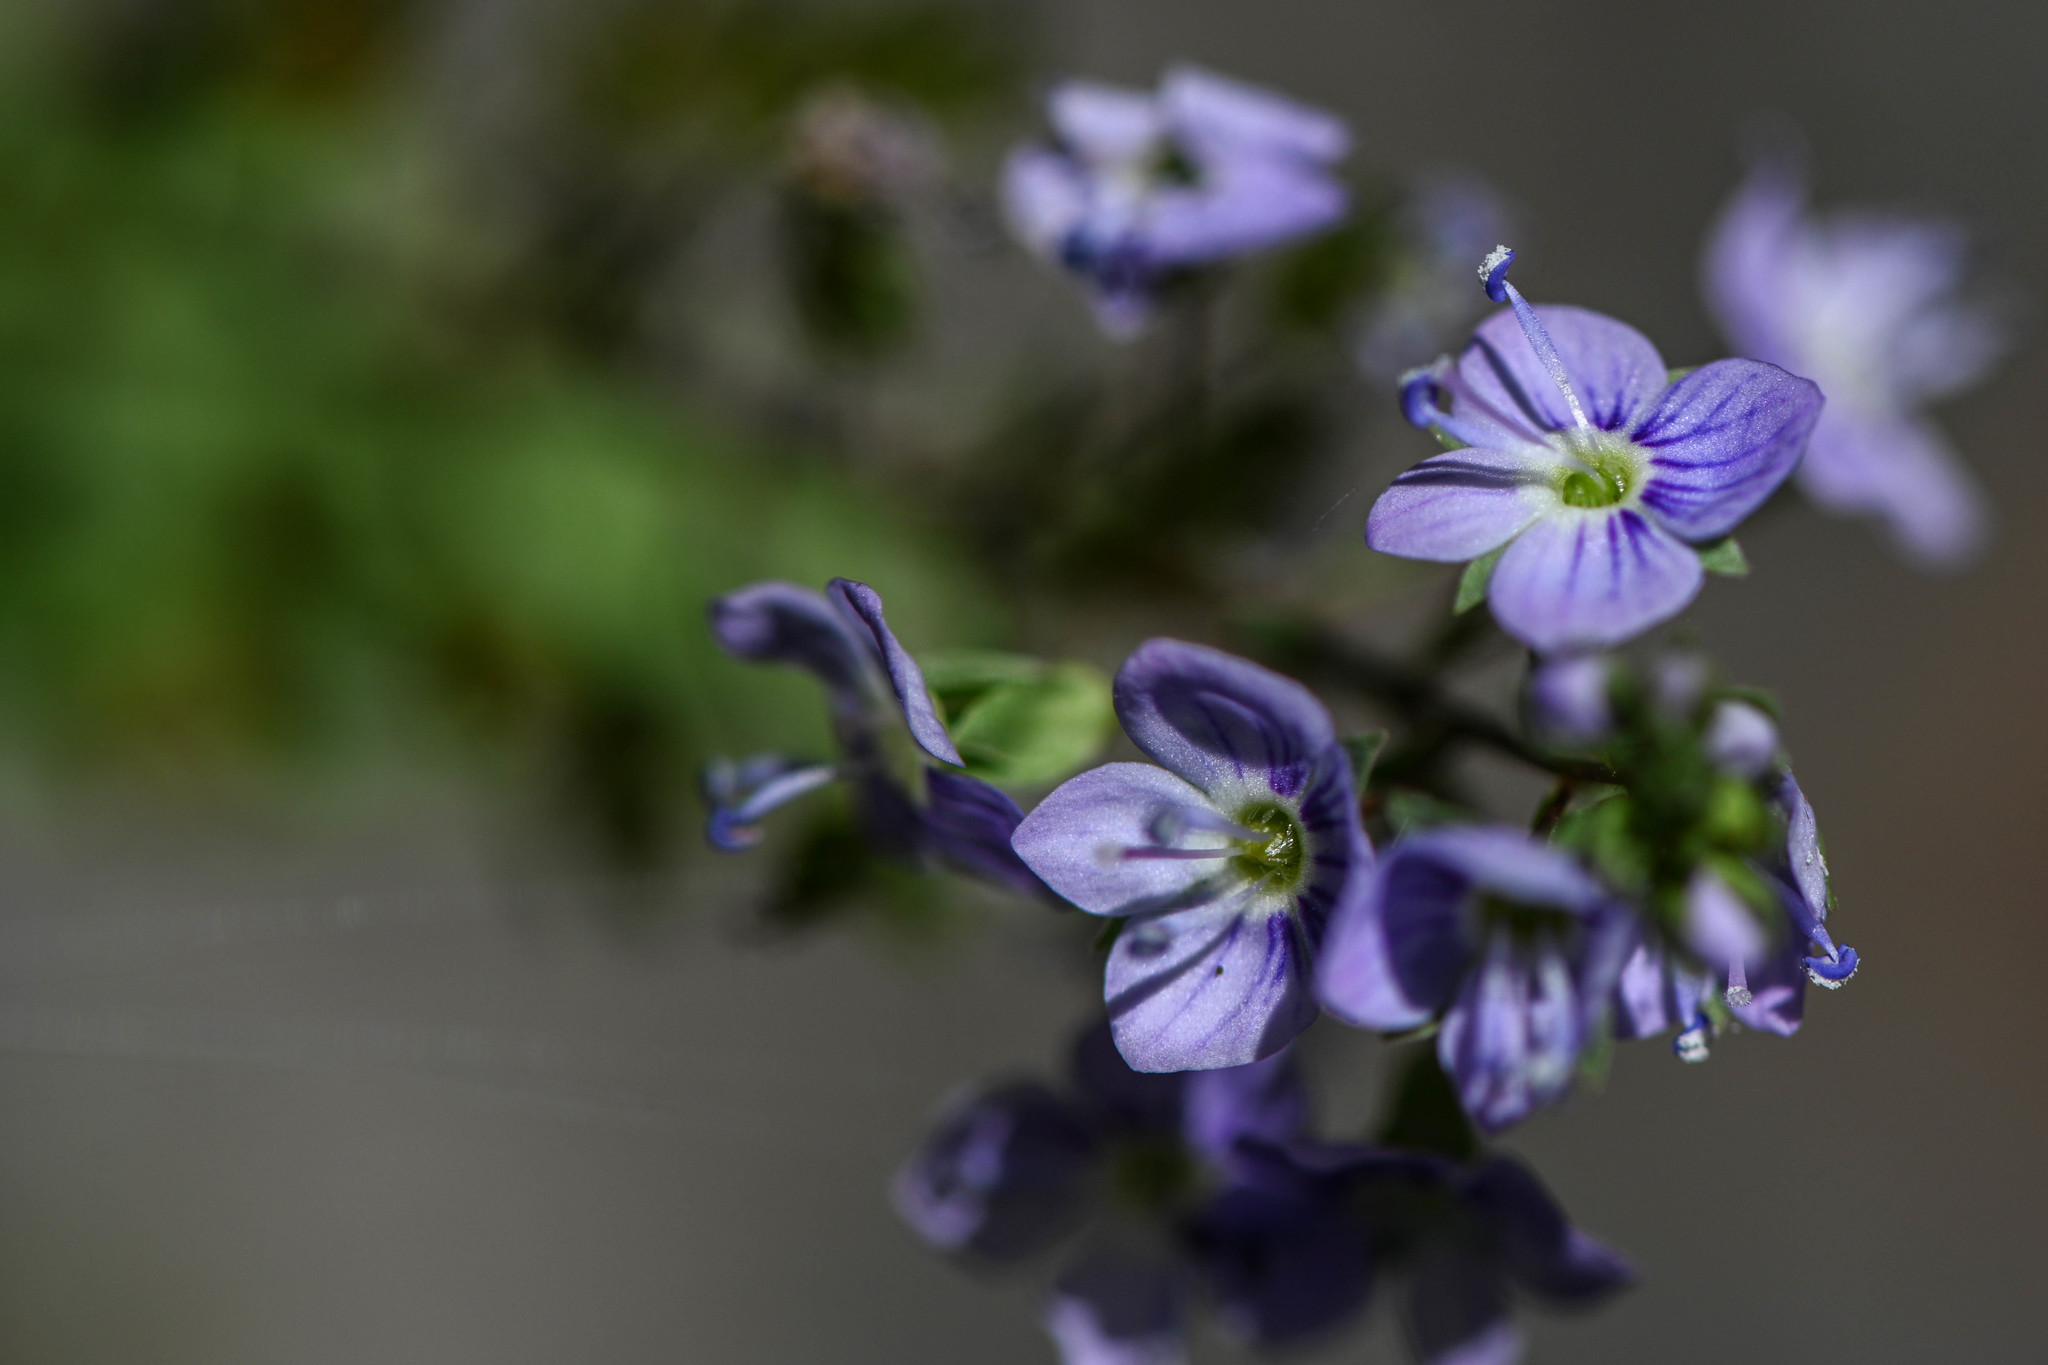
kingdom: Plantae
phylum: Tracheophyta
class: Magnoliopsida
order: Lamiales
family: Plantaginaceae
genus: Veronica
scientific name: Veronica anagallis-aquatica
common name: Water speedwell
